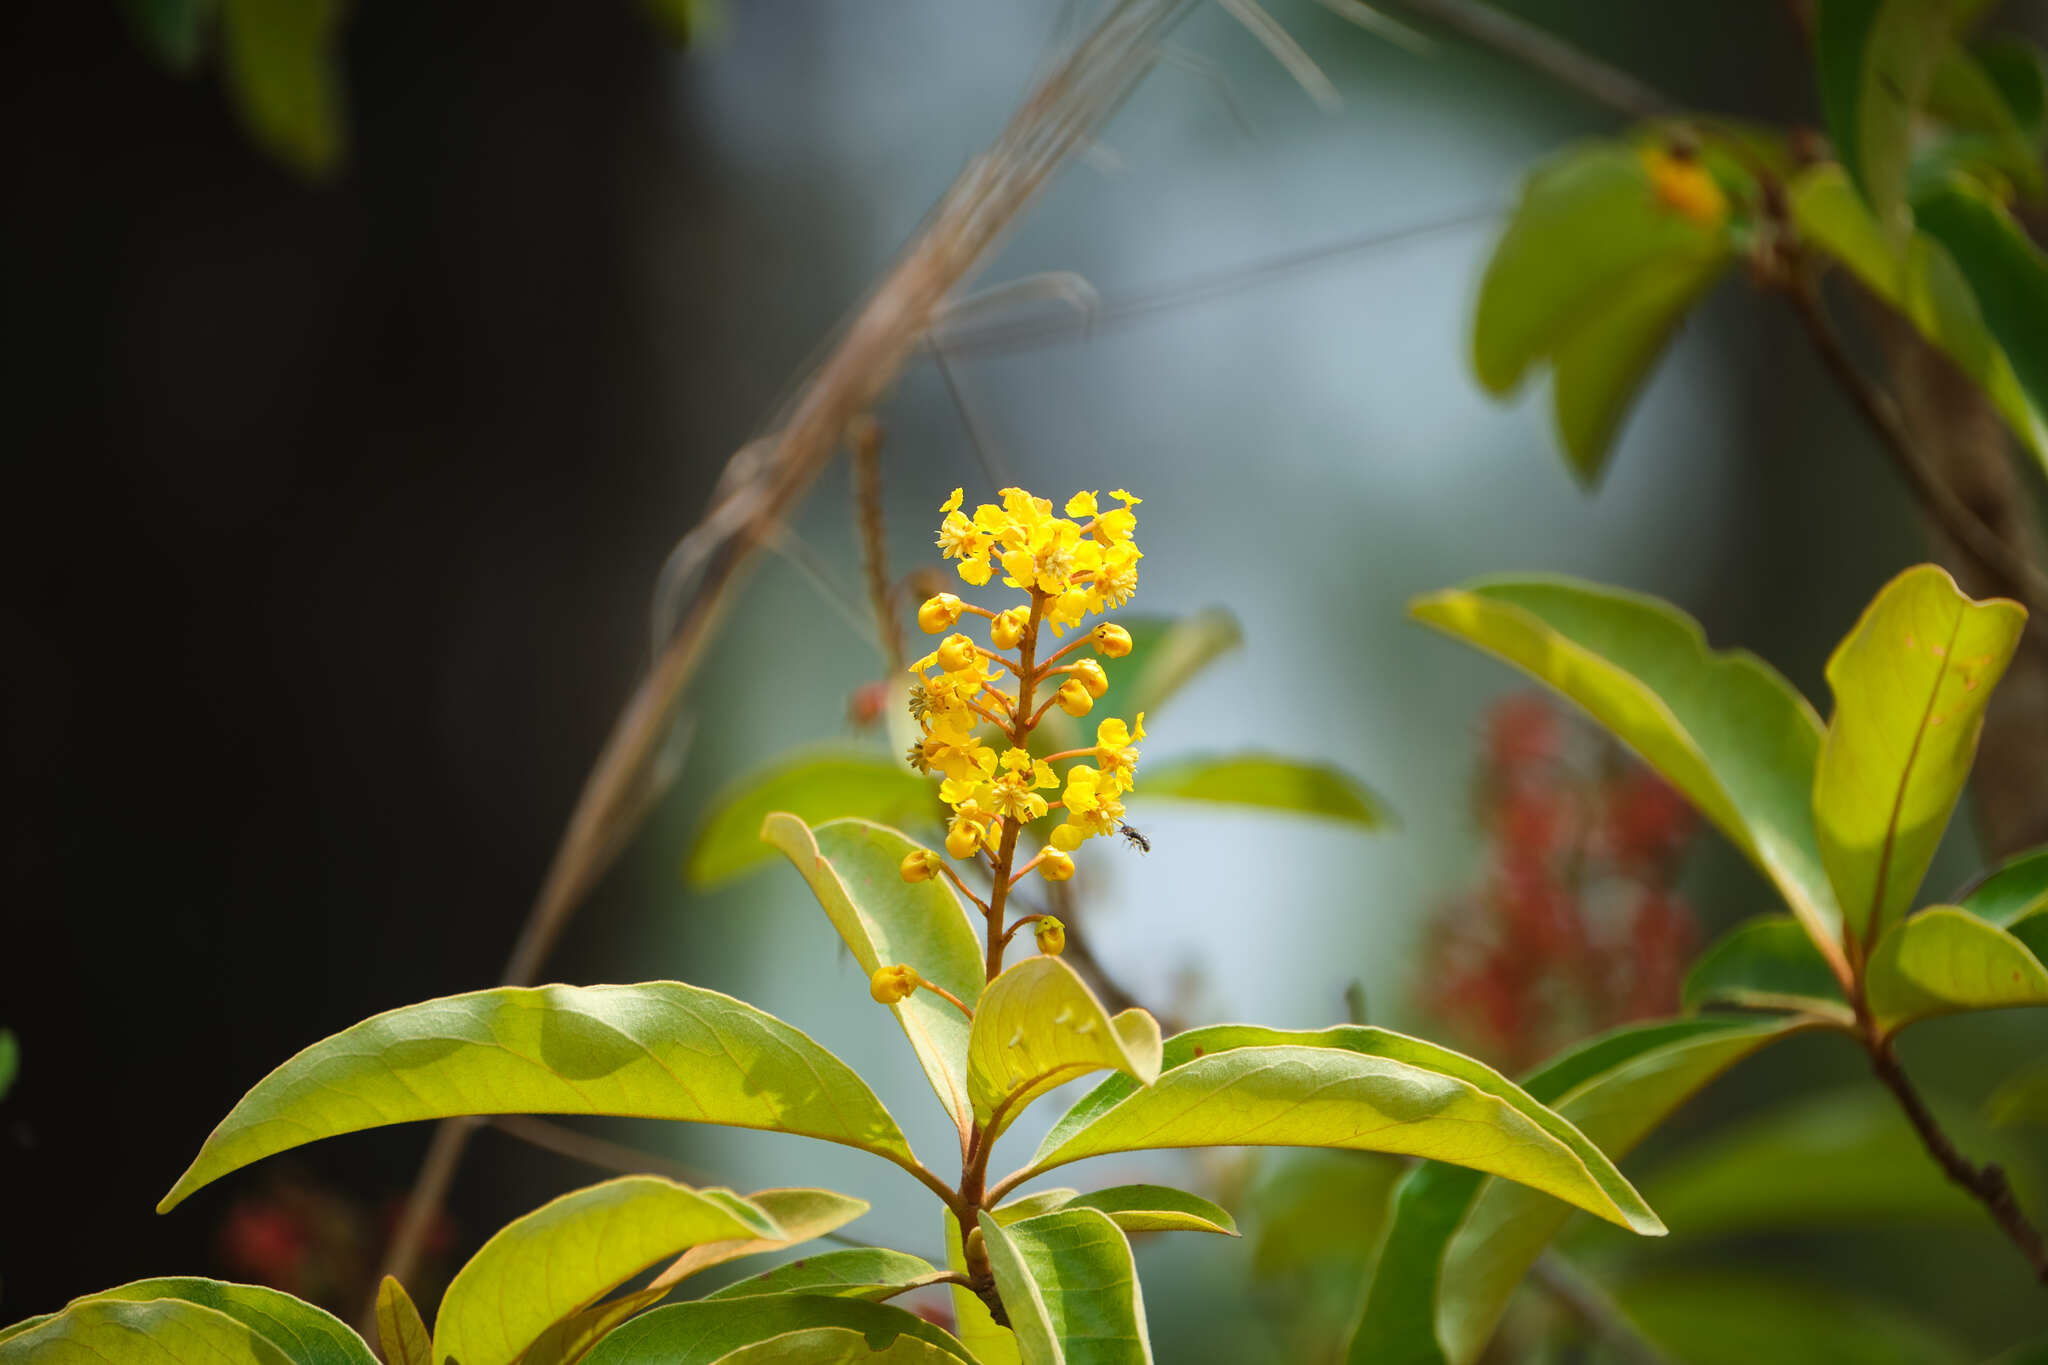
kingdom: Plantae
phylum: Tracheophyta
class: Magnoliopsida
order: Malpighiales
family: Malpighiaceae
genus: Byrsonima
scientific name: Byrsonima crassifolia
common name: Golden spoon
